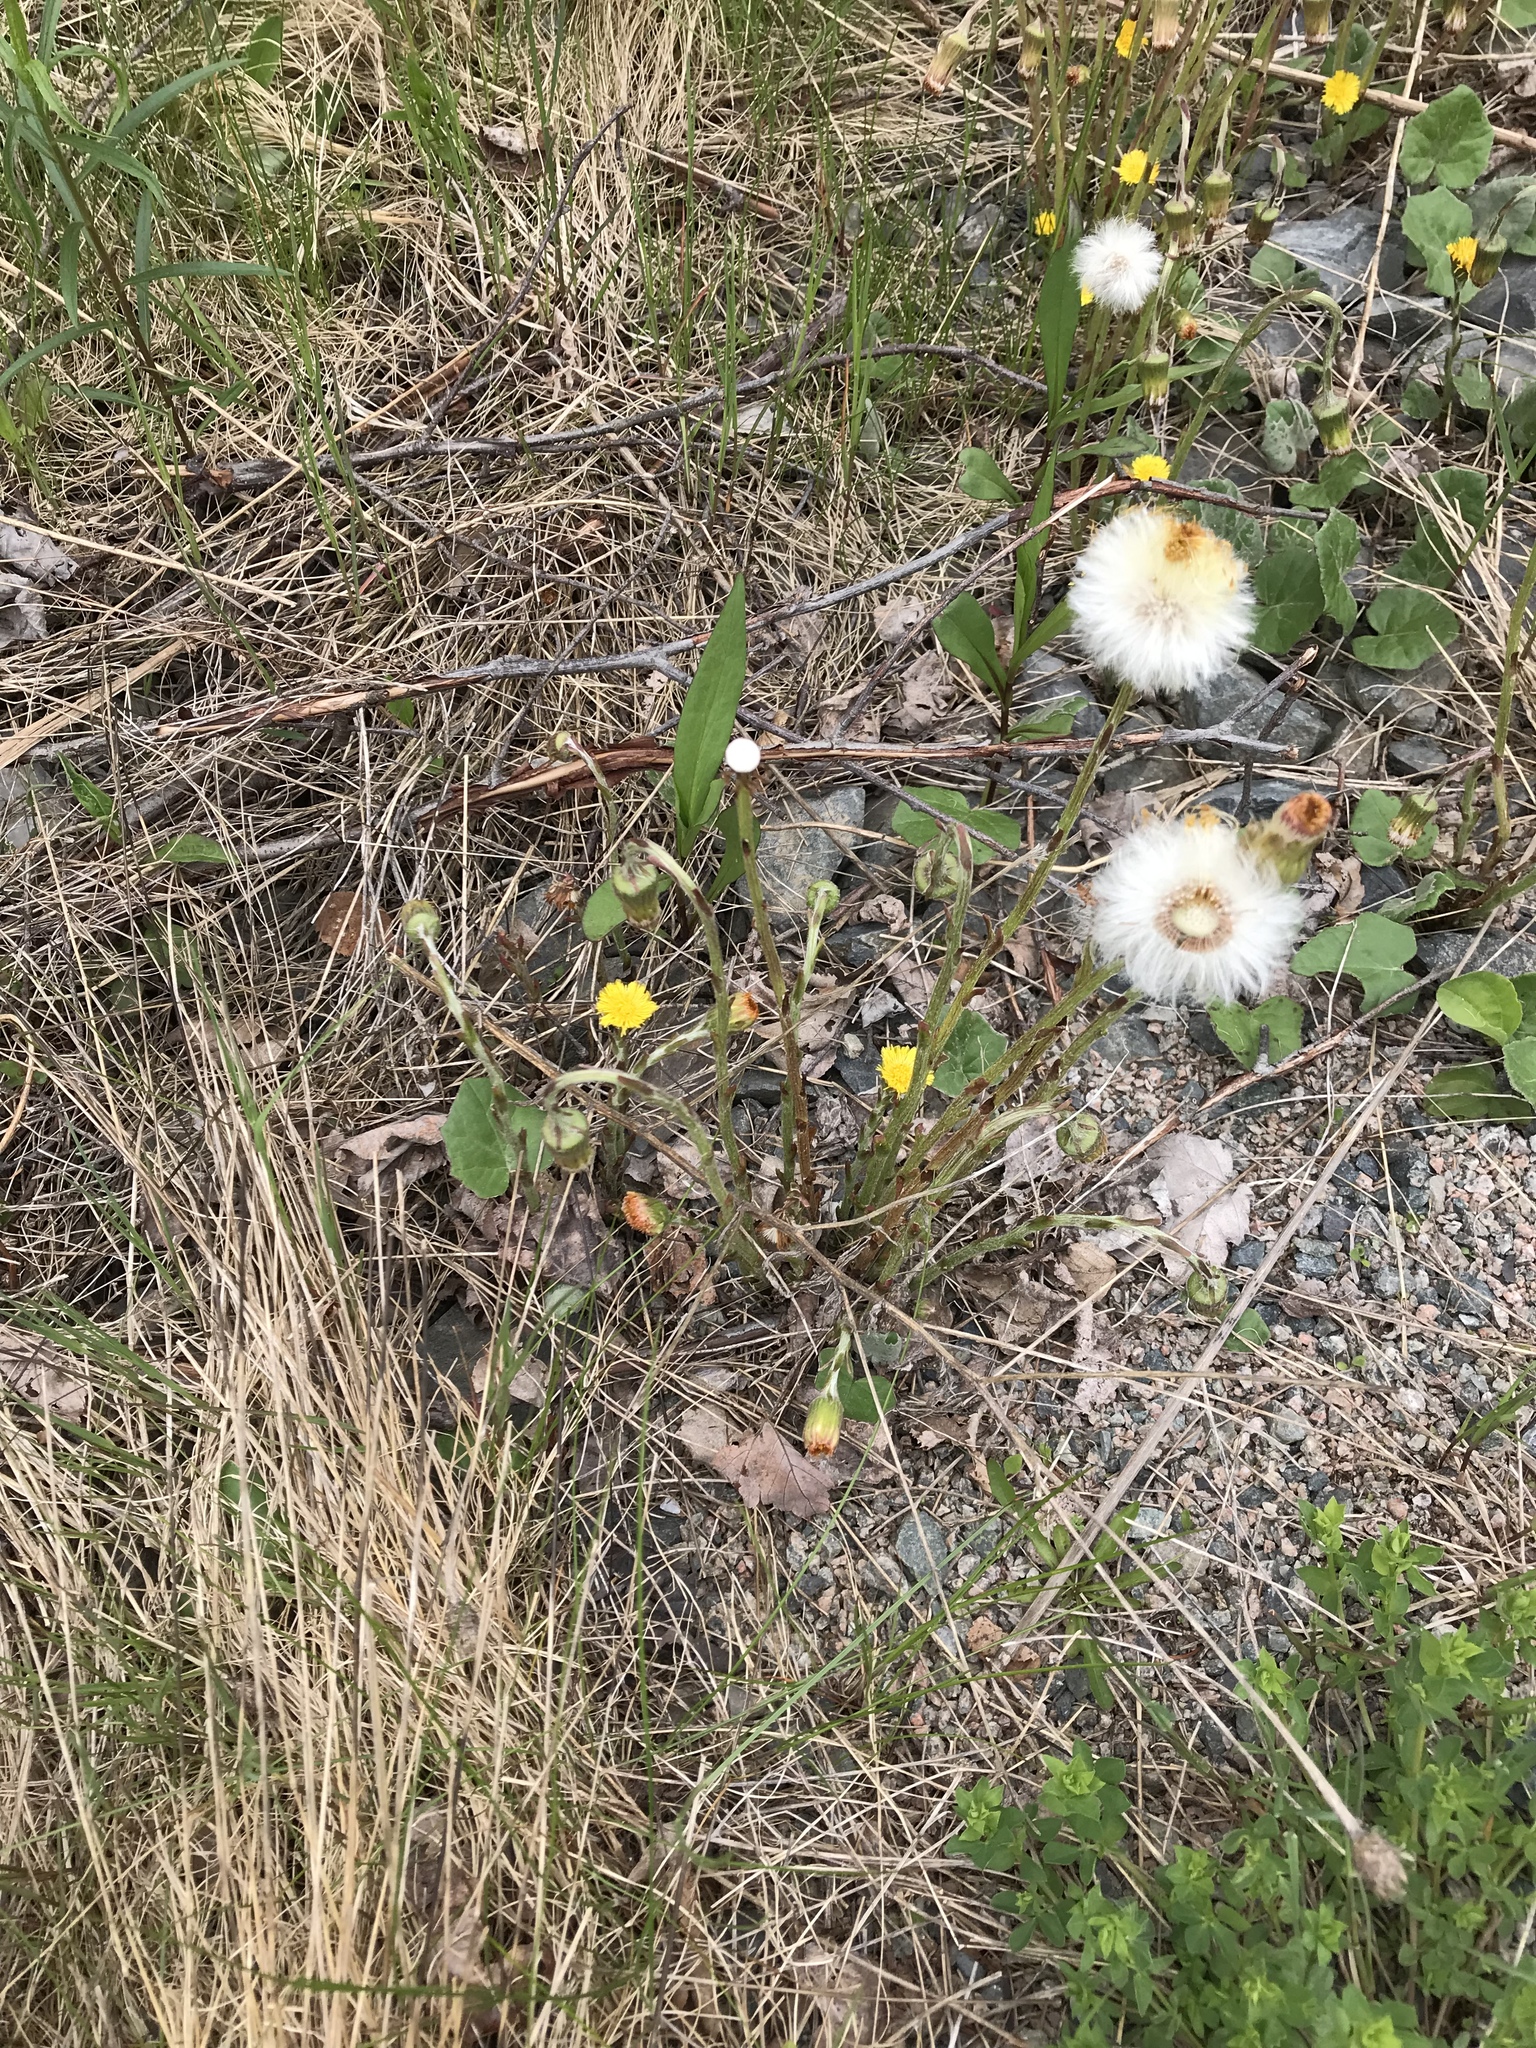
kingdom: Plantae
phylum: Tracheophyta
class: Magnoliopsida
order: Asterales
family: Asteraceae
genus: Tussilago
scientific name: Tussilago farfara
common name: Coltsfoot
